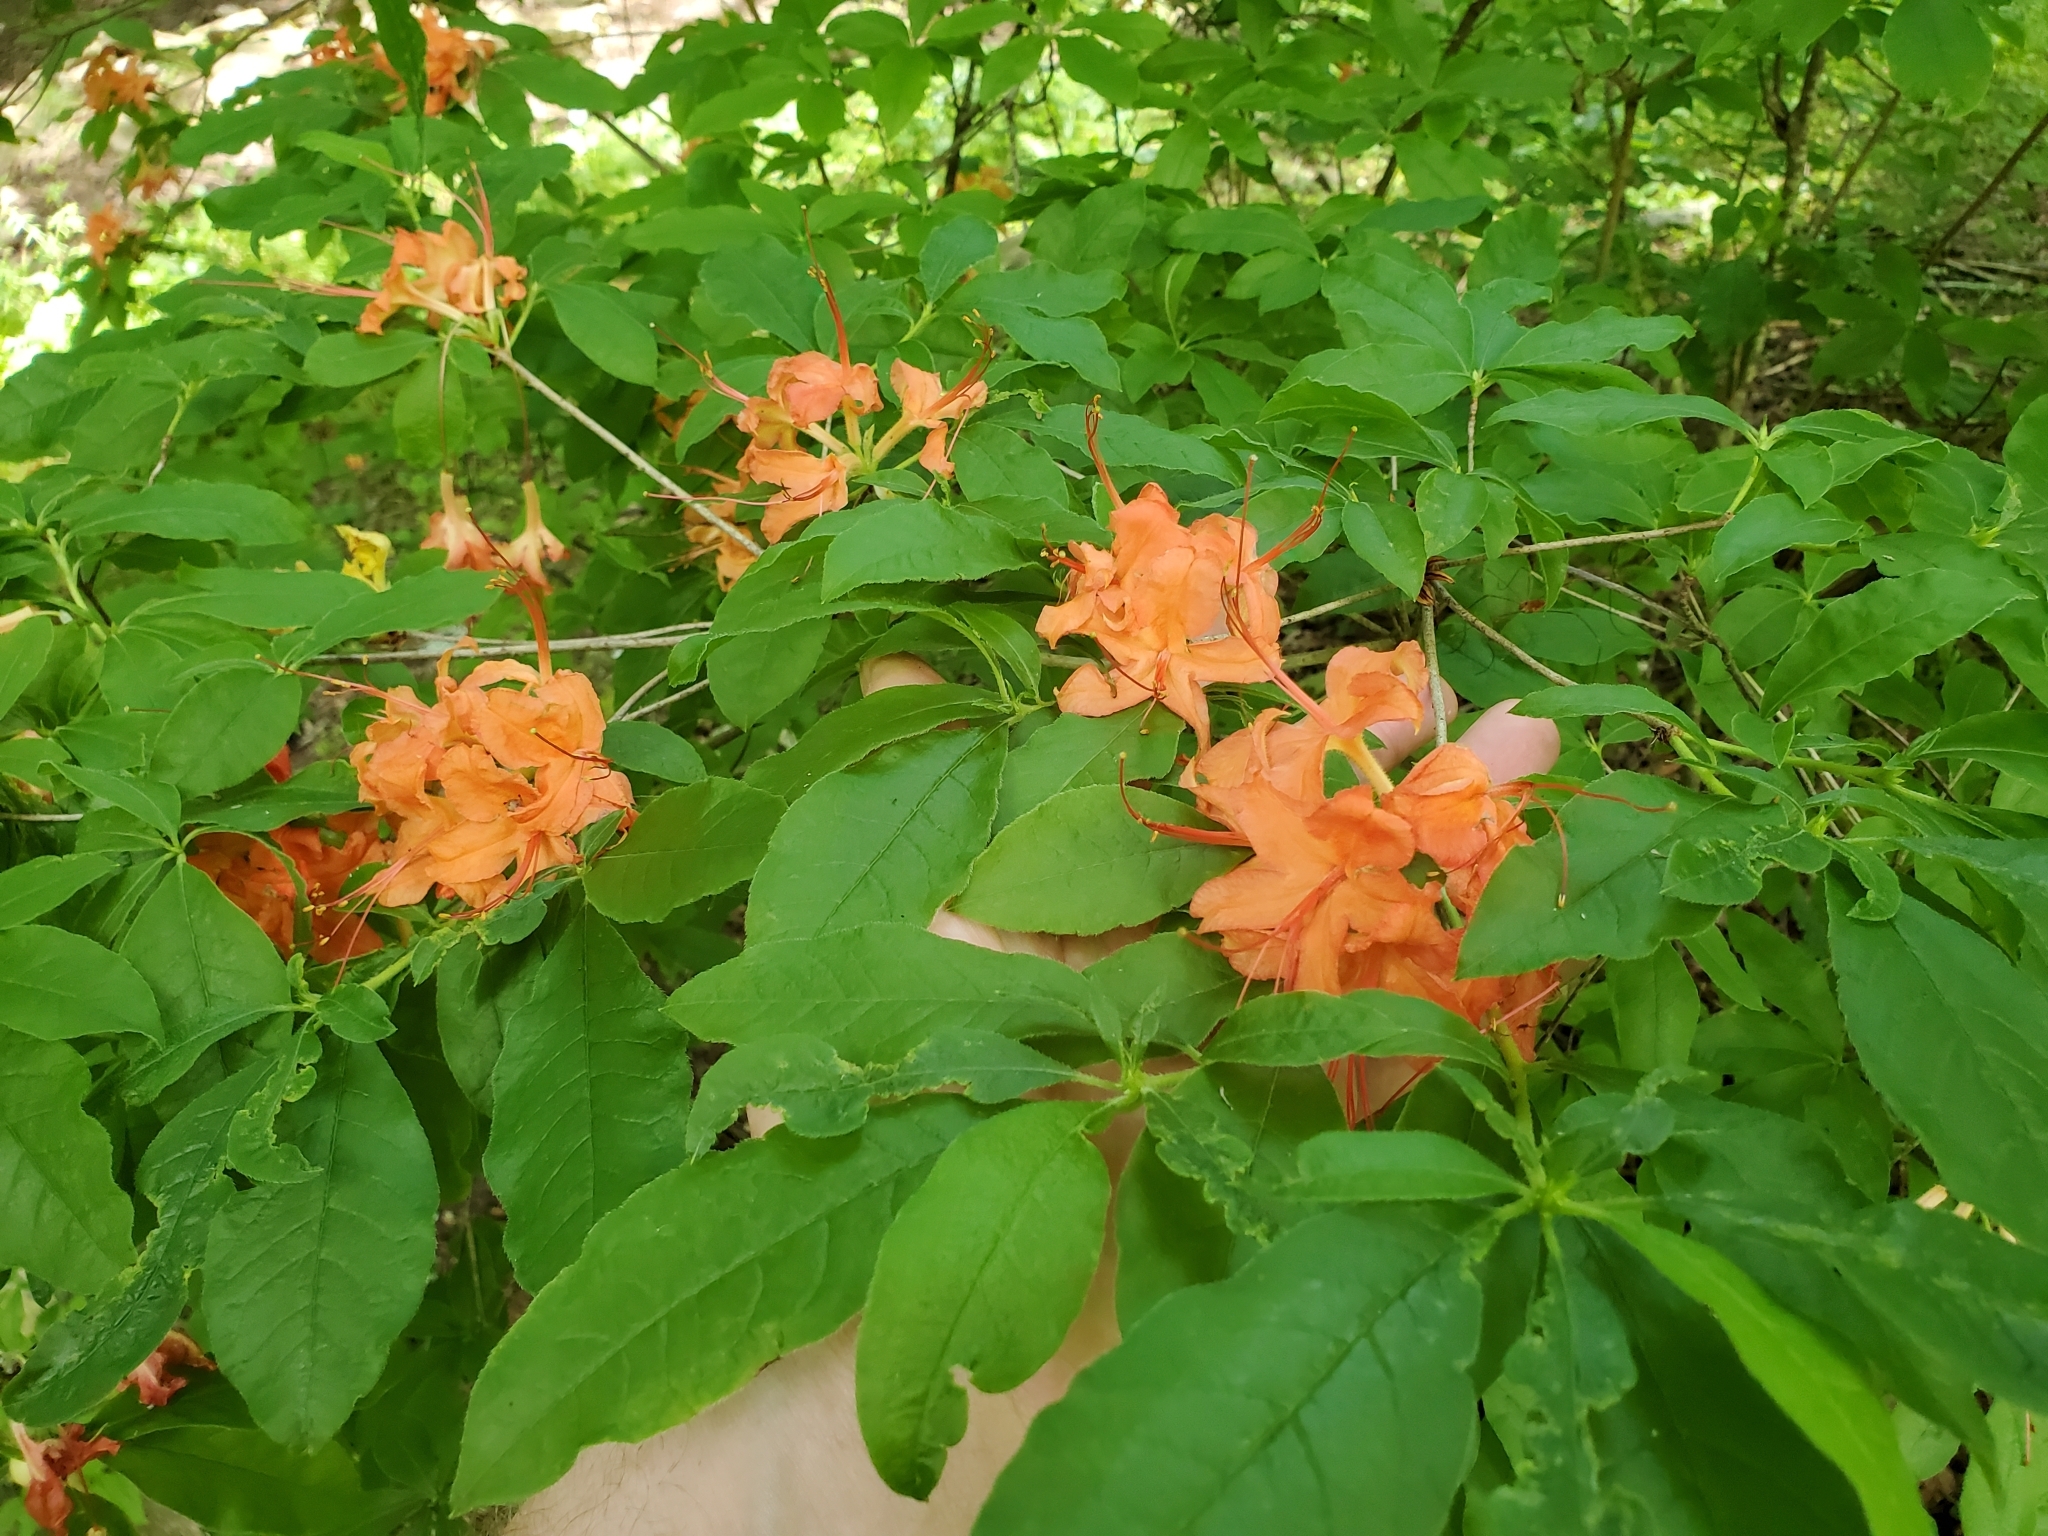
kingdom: Plantae
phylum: Tracheophyta
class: Magnoliopsida
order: Ericales
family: Ericaceae
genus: Rhododendron
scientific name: Rhododendron calendulaceum
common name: Flame azalea
